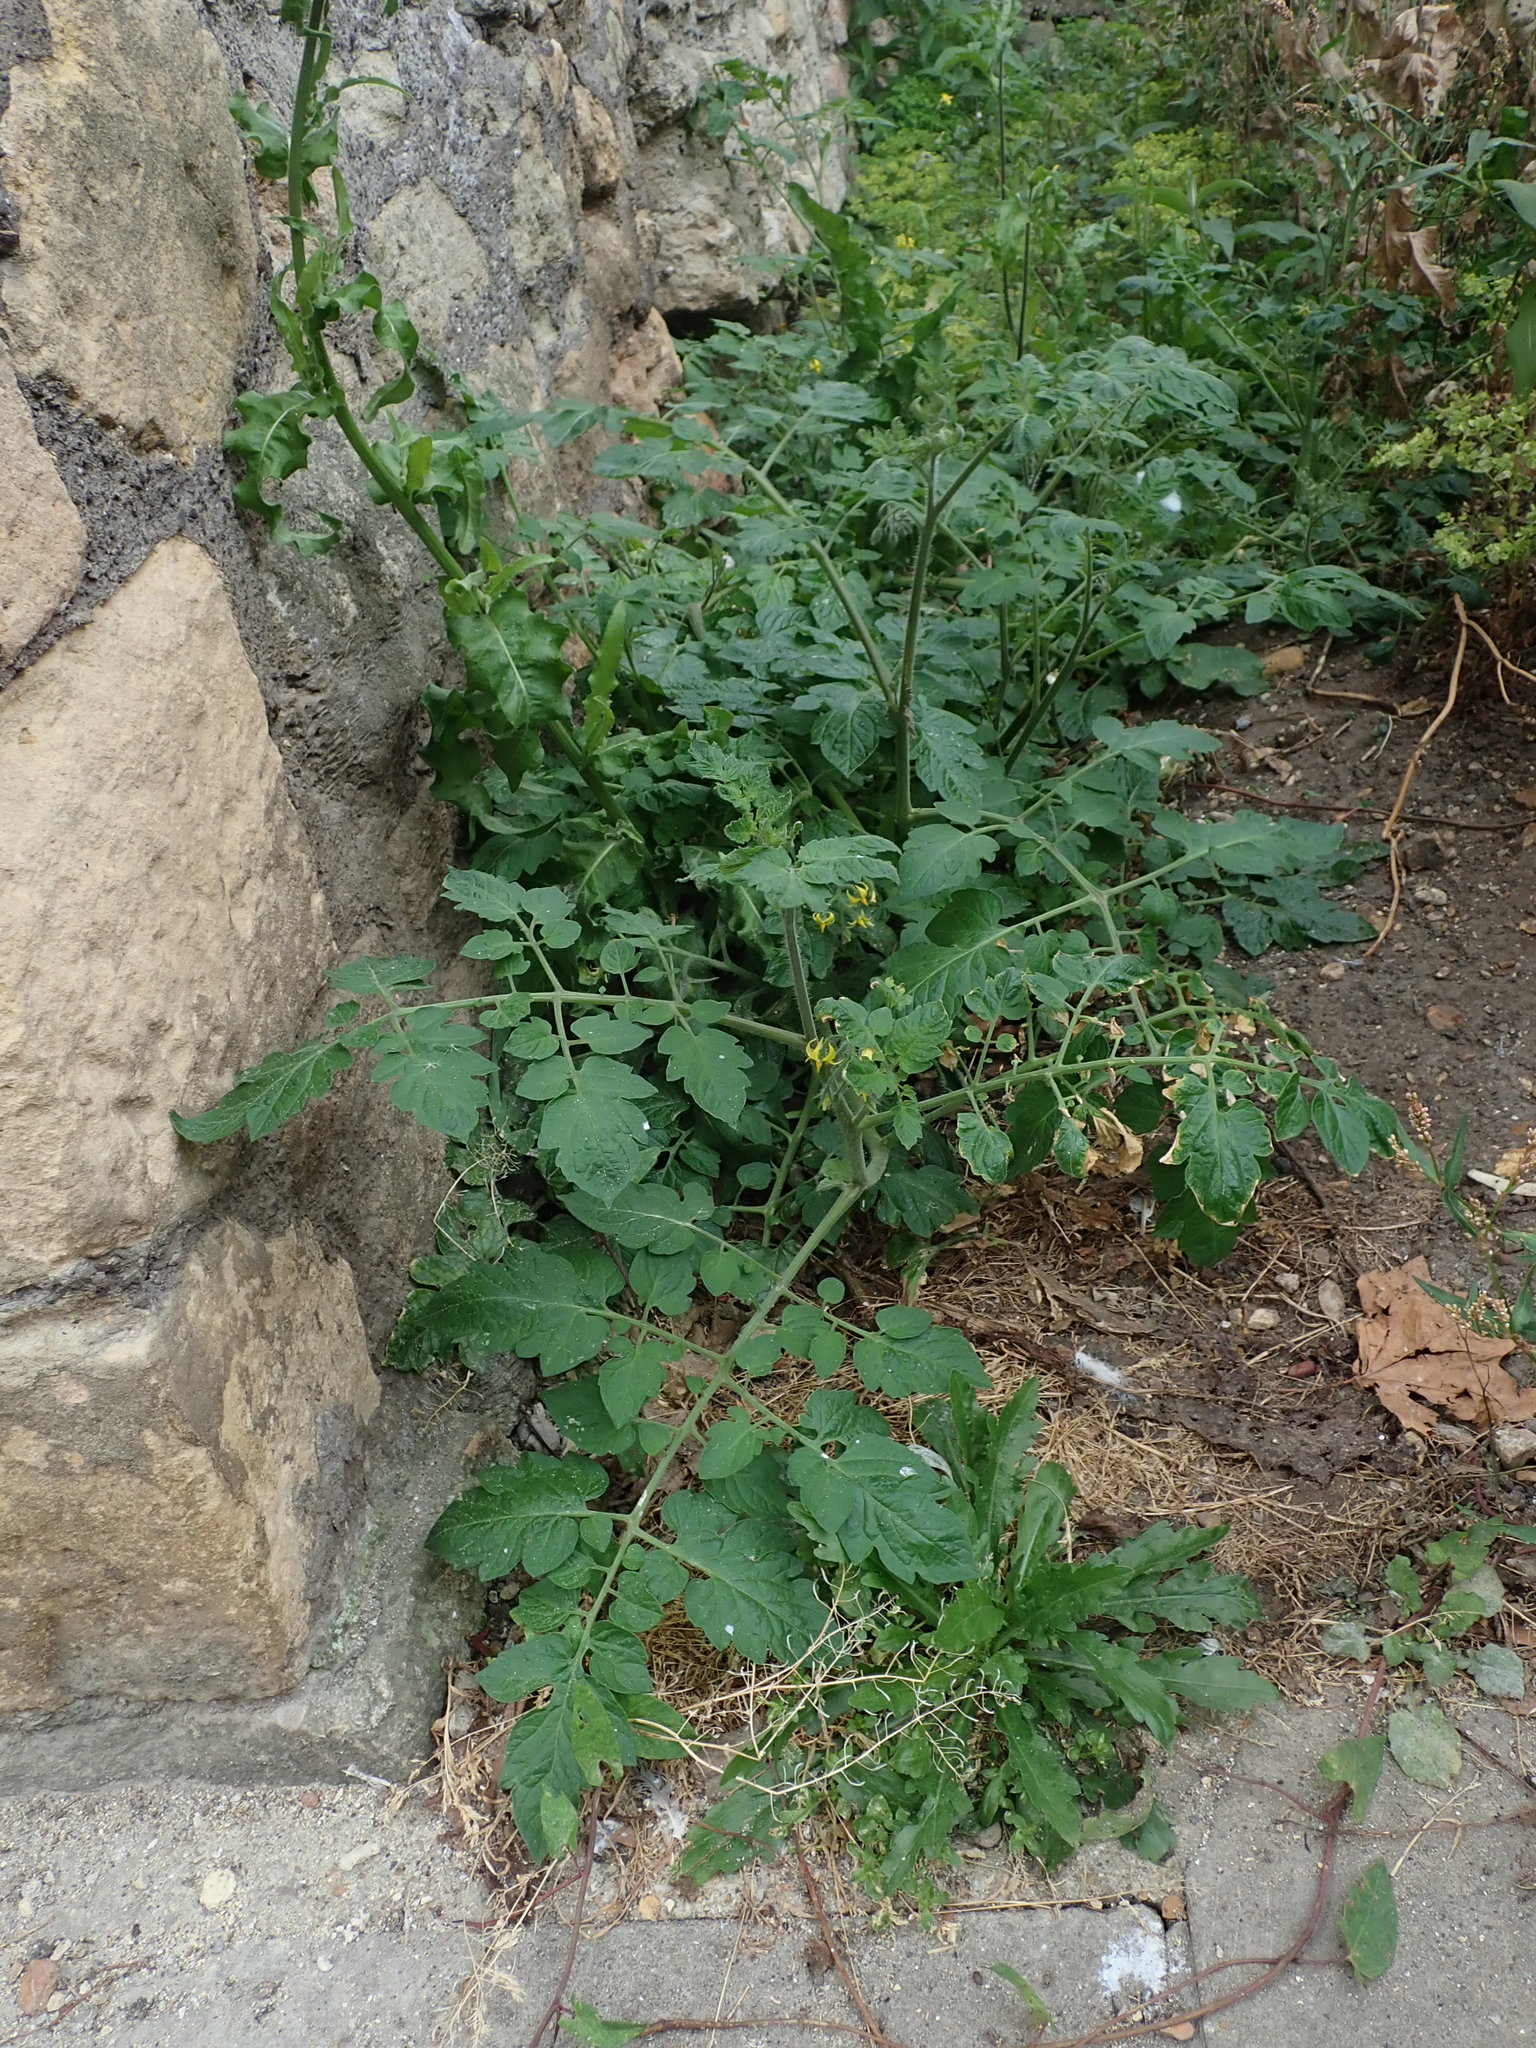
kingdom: Plantae
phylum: Tracheophyta
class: Magnoliopsida
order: Solanales
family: Solanaceae
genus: Solanum
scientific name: Solanum lycopersicum
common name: Garden tomato
